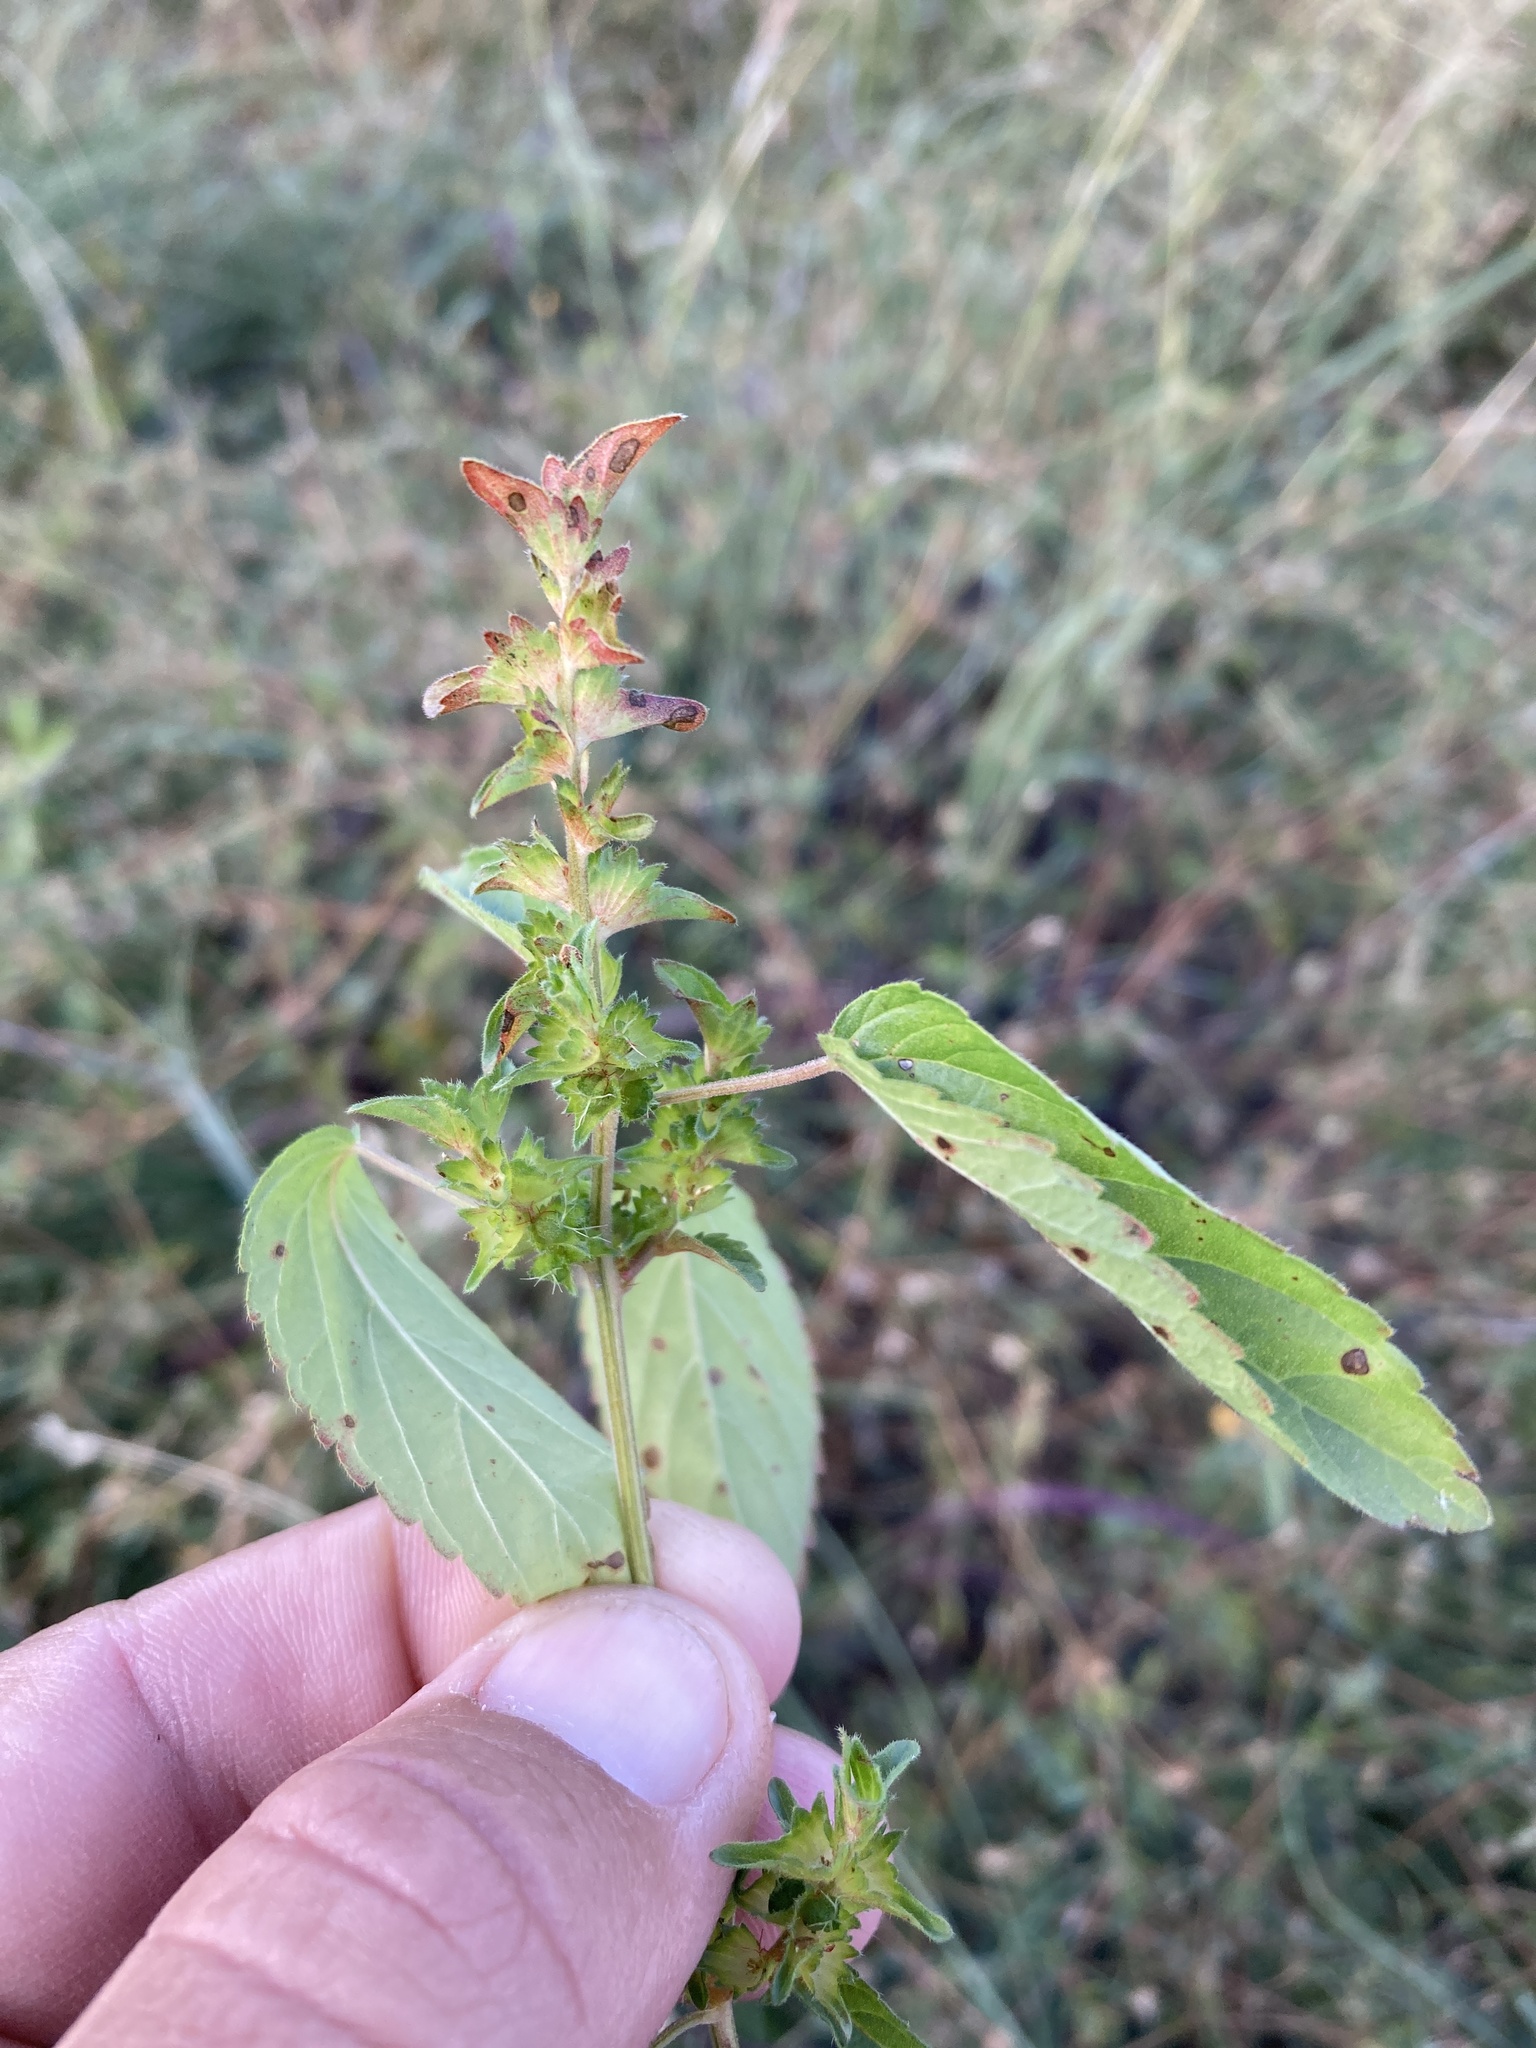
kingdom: Plantae
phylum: Tracheophyta
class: Magnoliopsida
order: Malpighiales
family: Euphorbiaceae
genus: Acalypha
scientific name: Acalypha neomexicana
